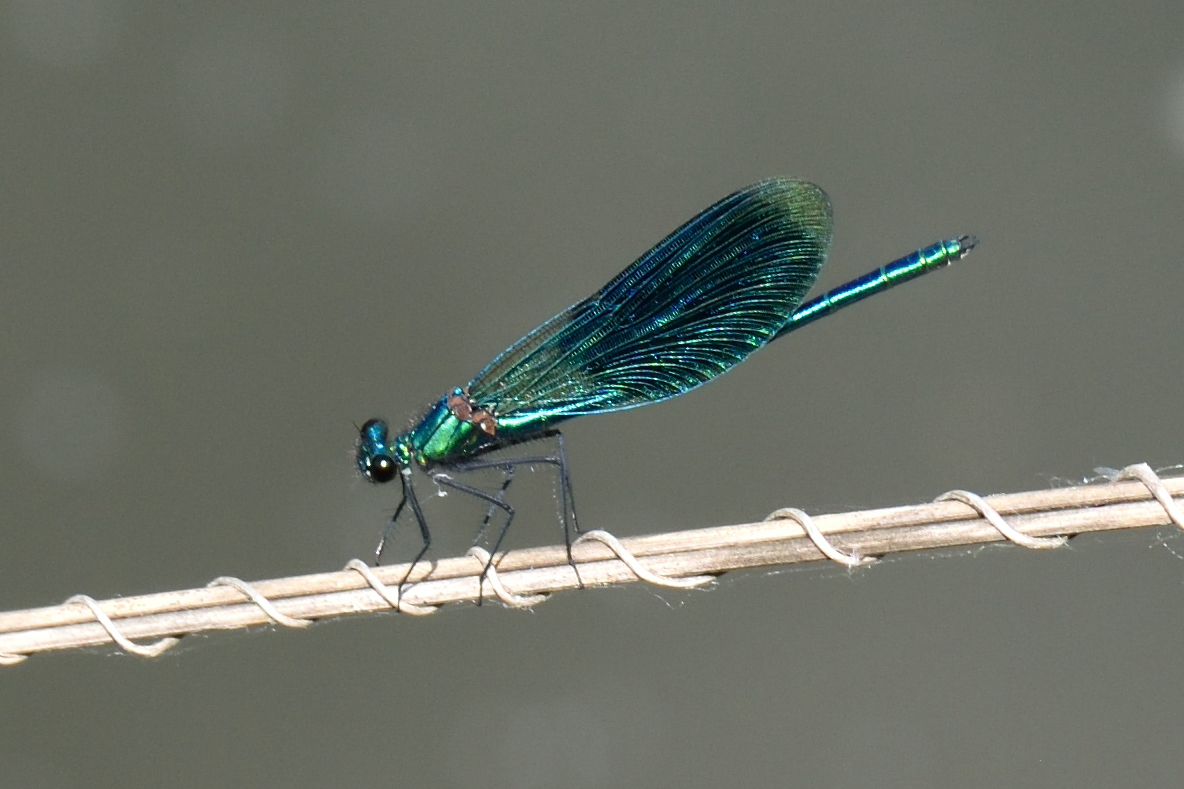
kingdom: Animalia
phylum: Arthropoda
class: Insecta
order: Odonata
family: Calopterygidae
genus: Calopteryx
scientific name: Calopteryx splendens
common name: Banded demoiselle
